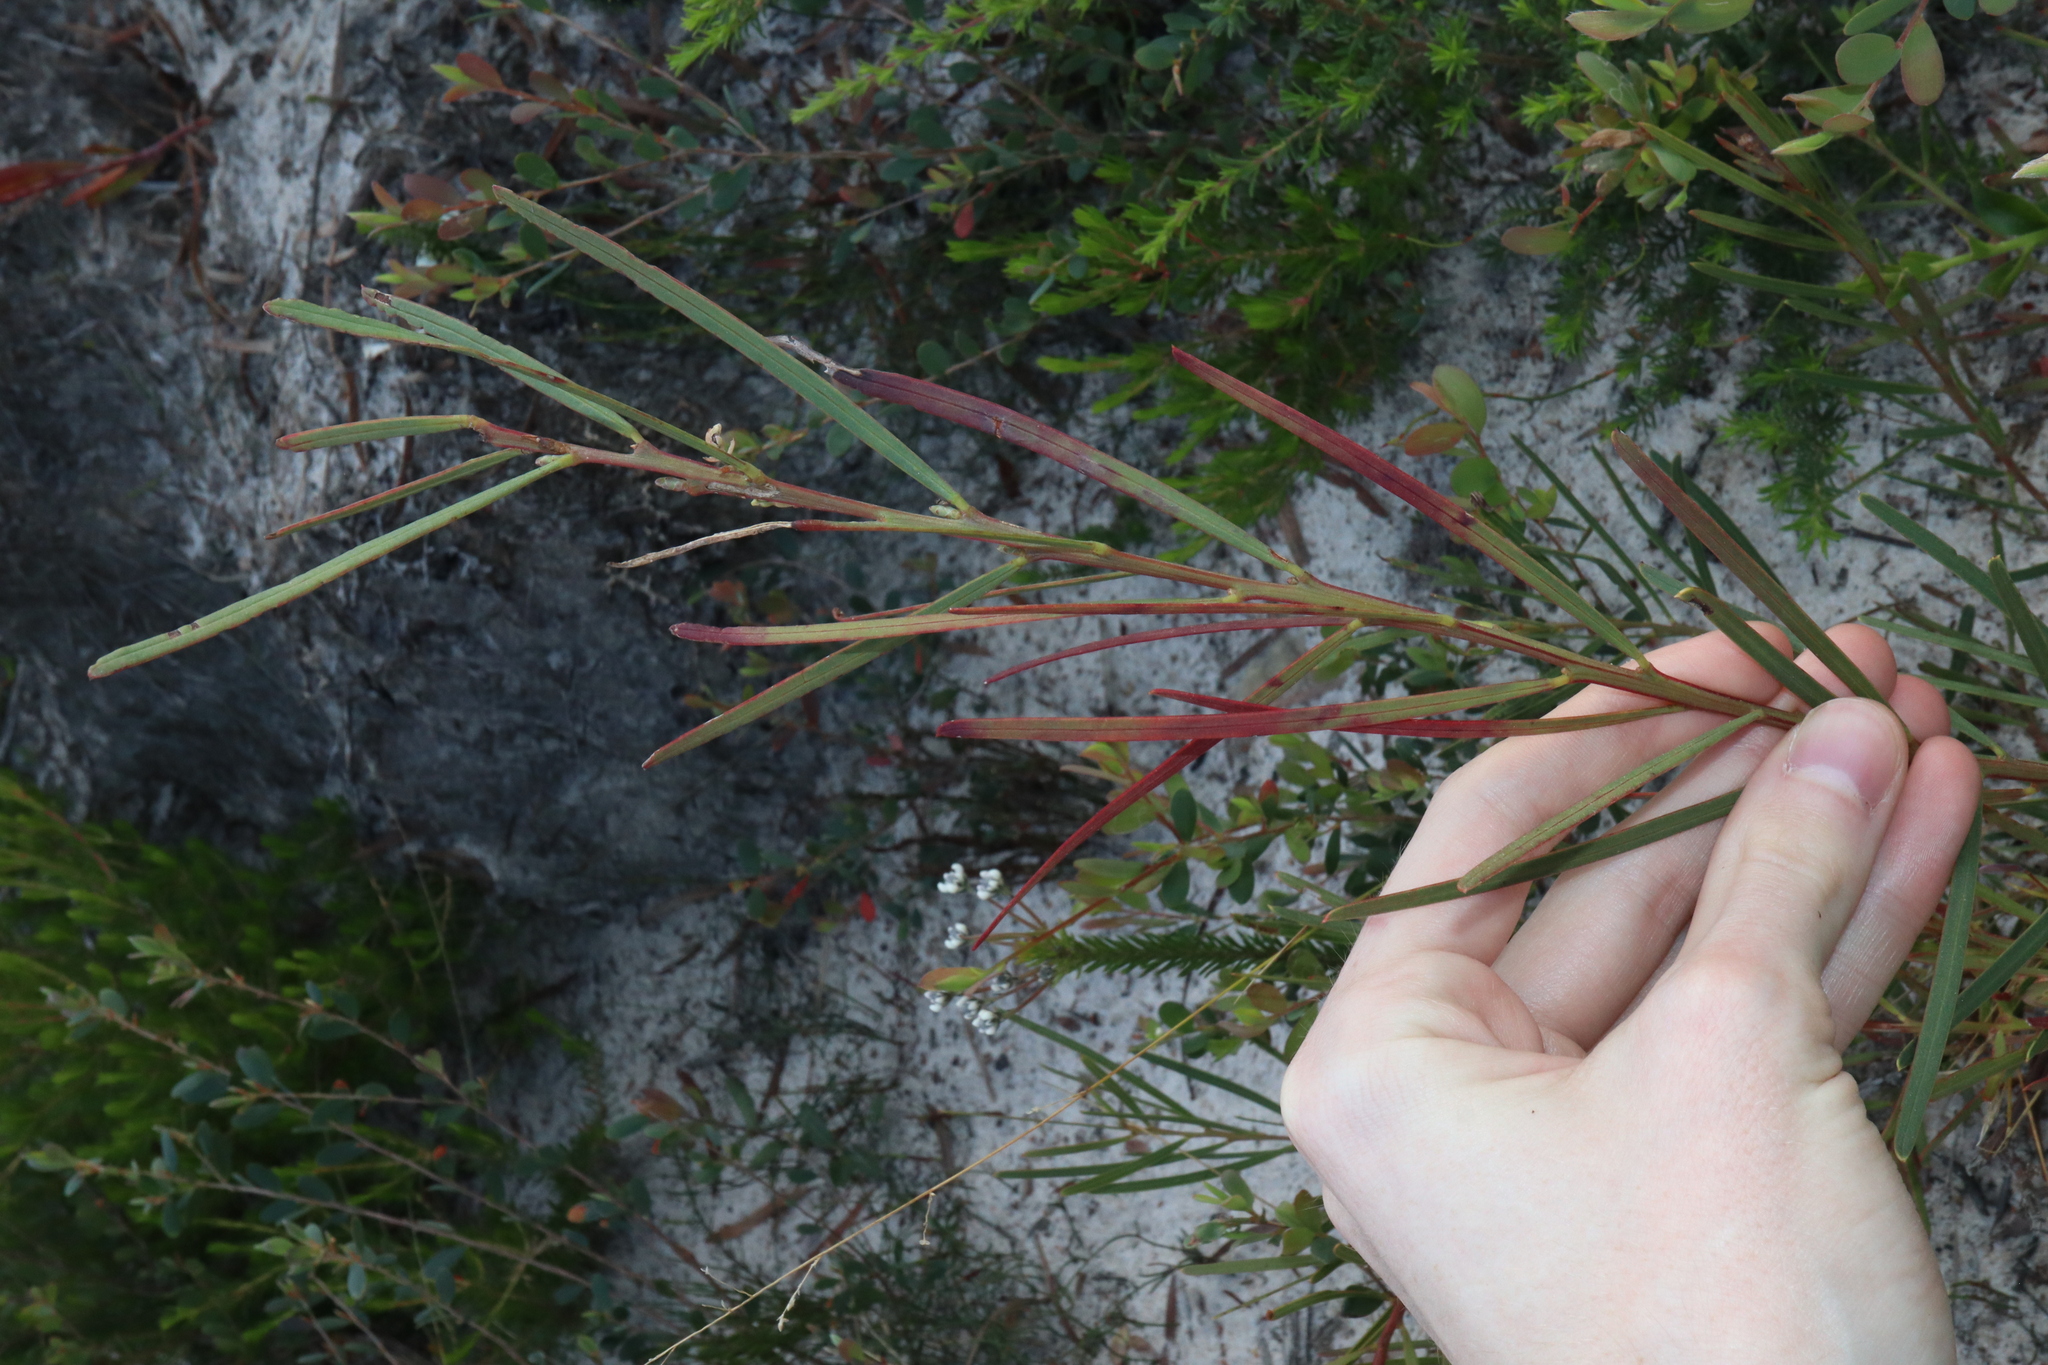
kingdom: Plantae
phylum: Tracheophyta
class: Magnoliopsida
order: Fabales
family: Fabaceae
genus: Acacia
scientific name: Acacia suaveolens
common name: Sweet acacia
